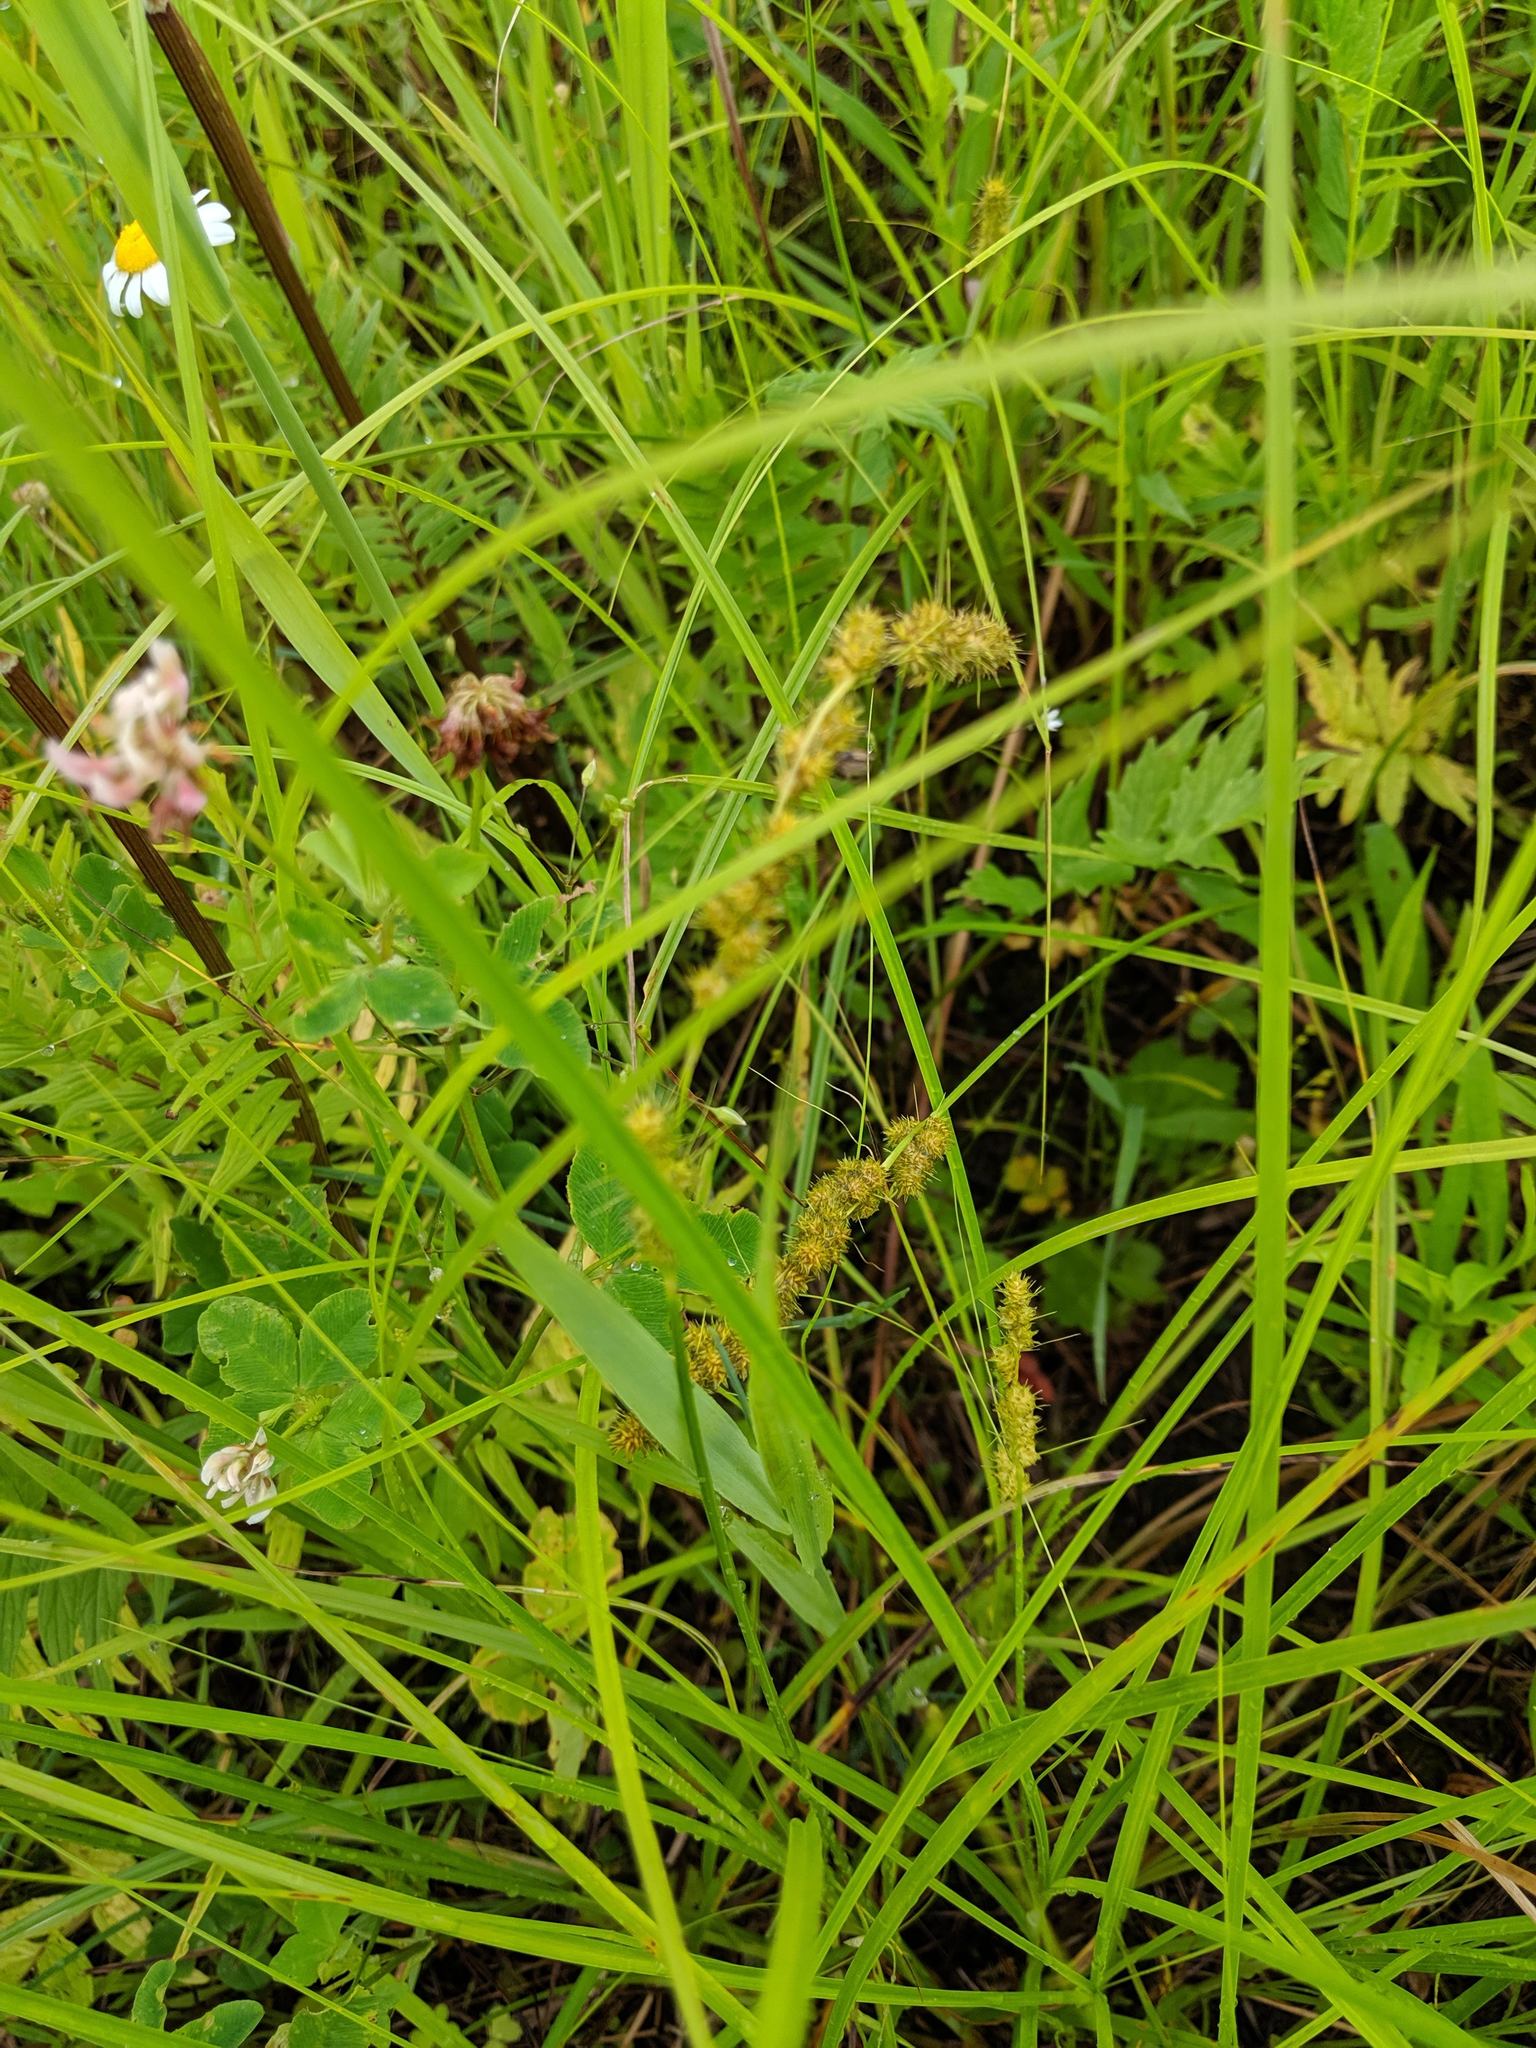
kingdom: Plantae
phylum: Tracheophyta
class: Liliopsida
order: Poales
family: Cyperaceae
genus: Carex
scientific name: Carex vulpinoidea
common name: American fox-sedge
